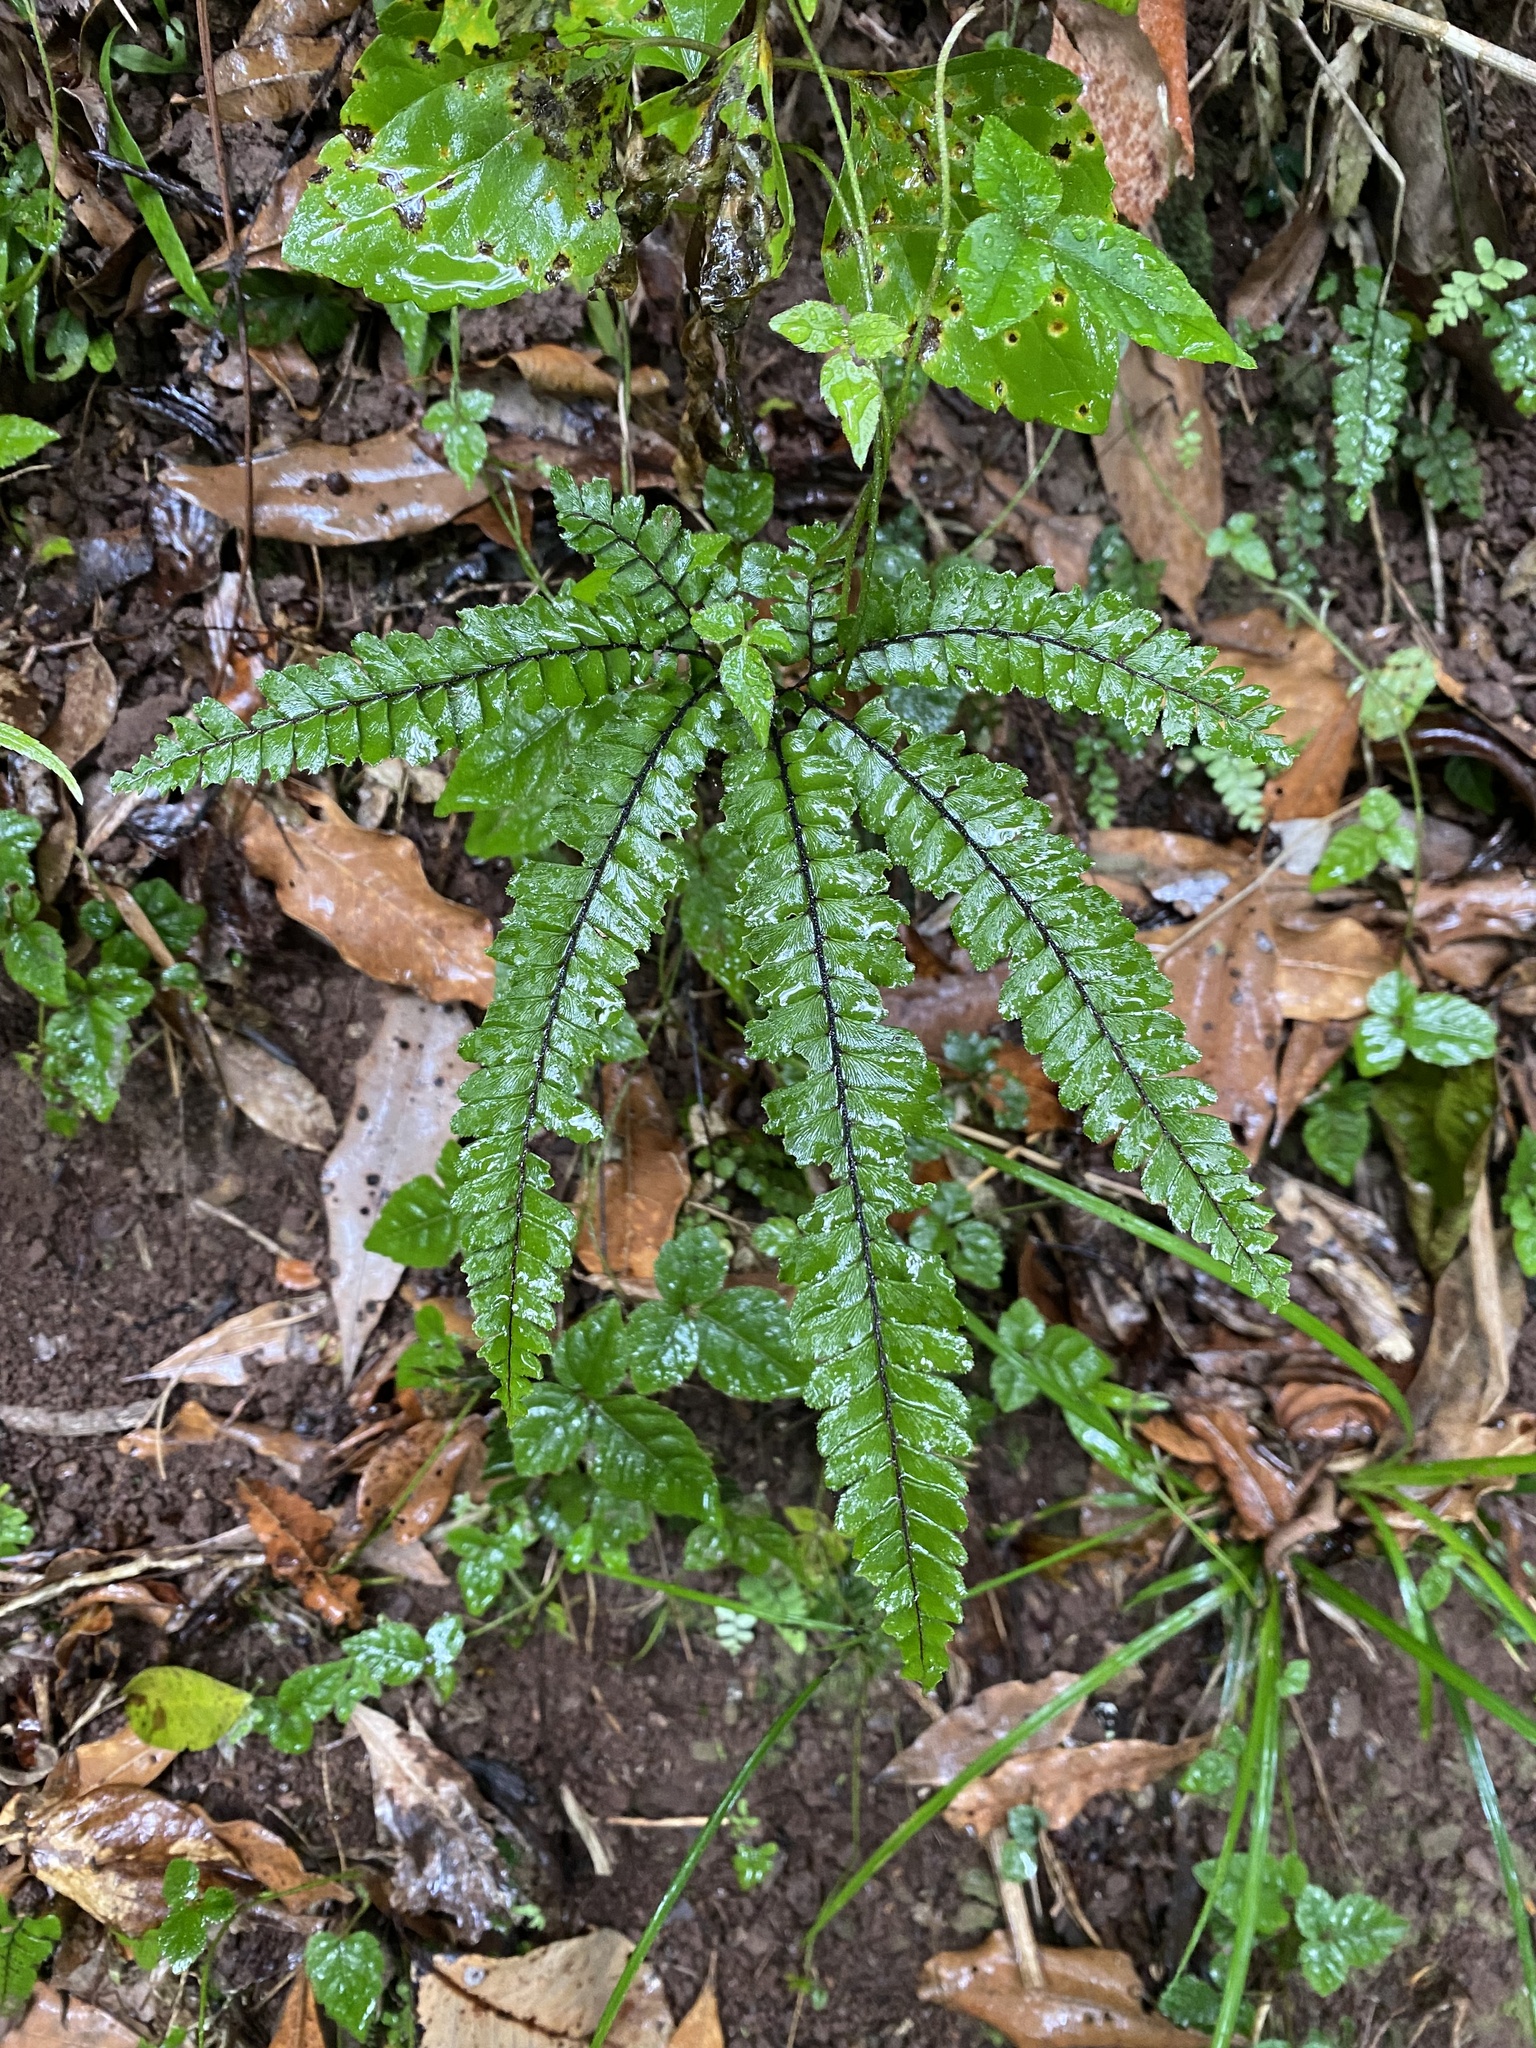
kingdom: Plantae
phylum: Tracheophyta
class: Polypodiopsida
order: Polypodiales
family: Pteridaceae
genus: Adiantum
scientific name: Adiantum hispidulum
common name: Rough maidenhair
